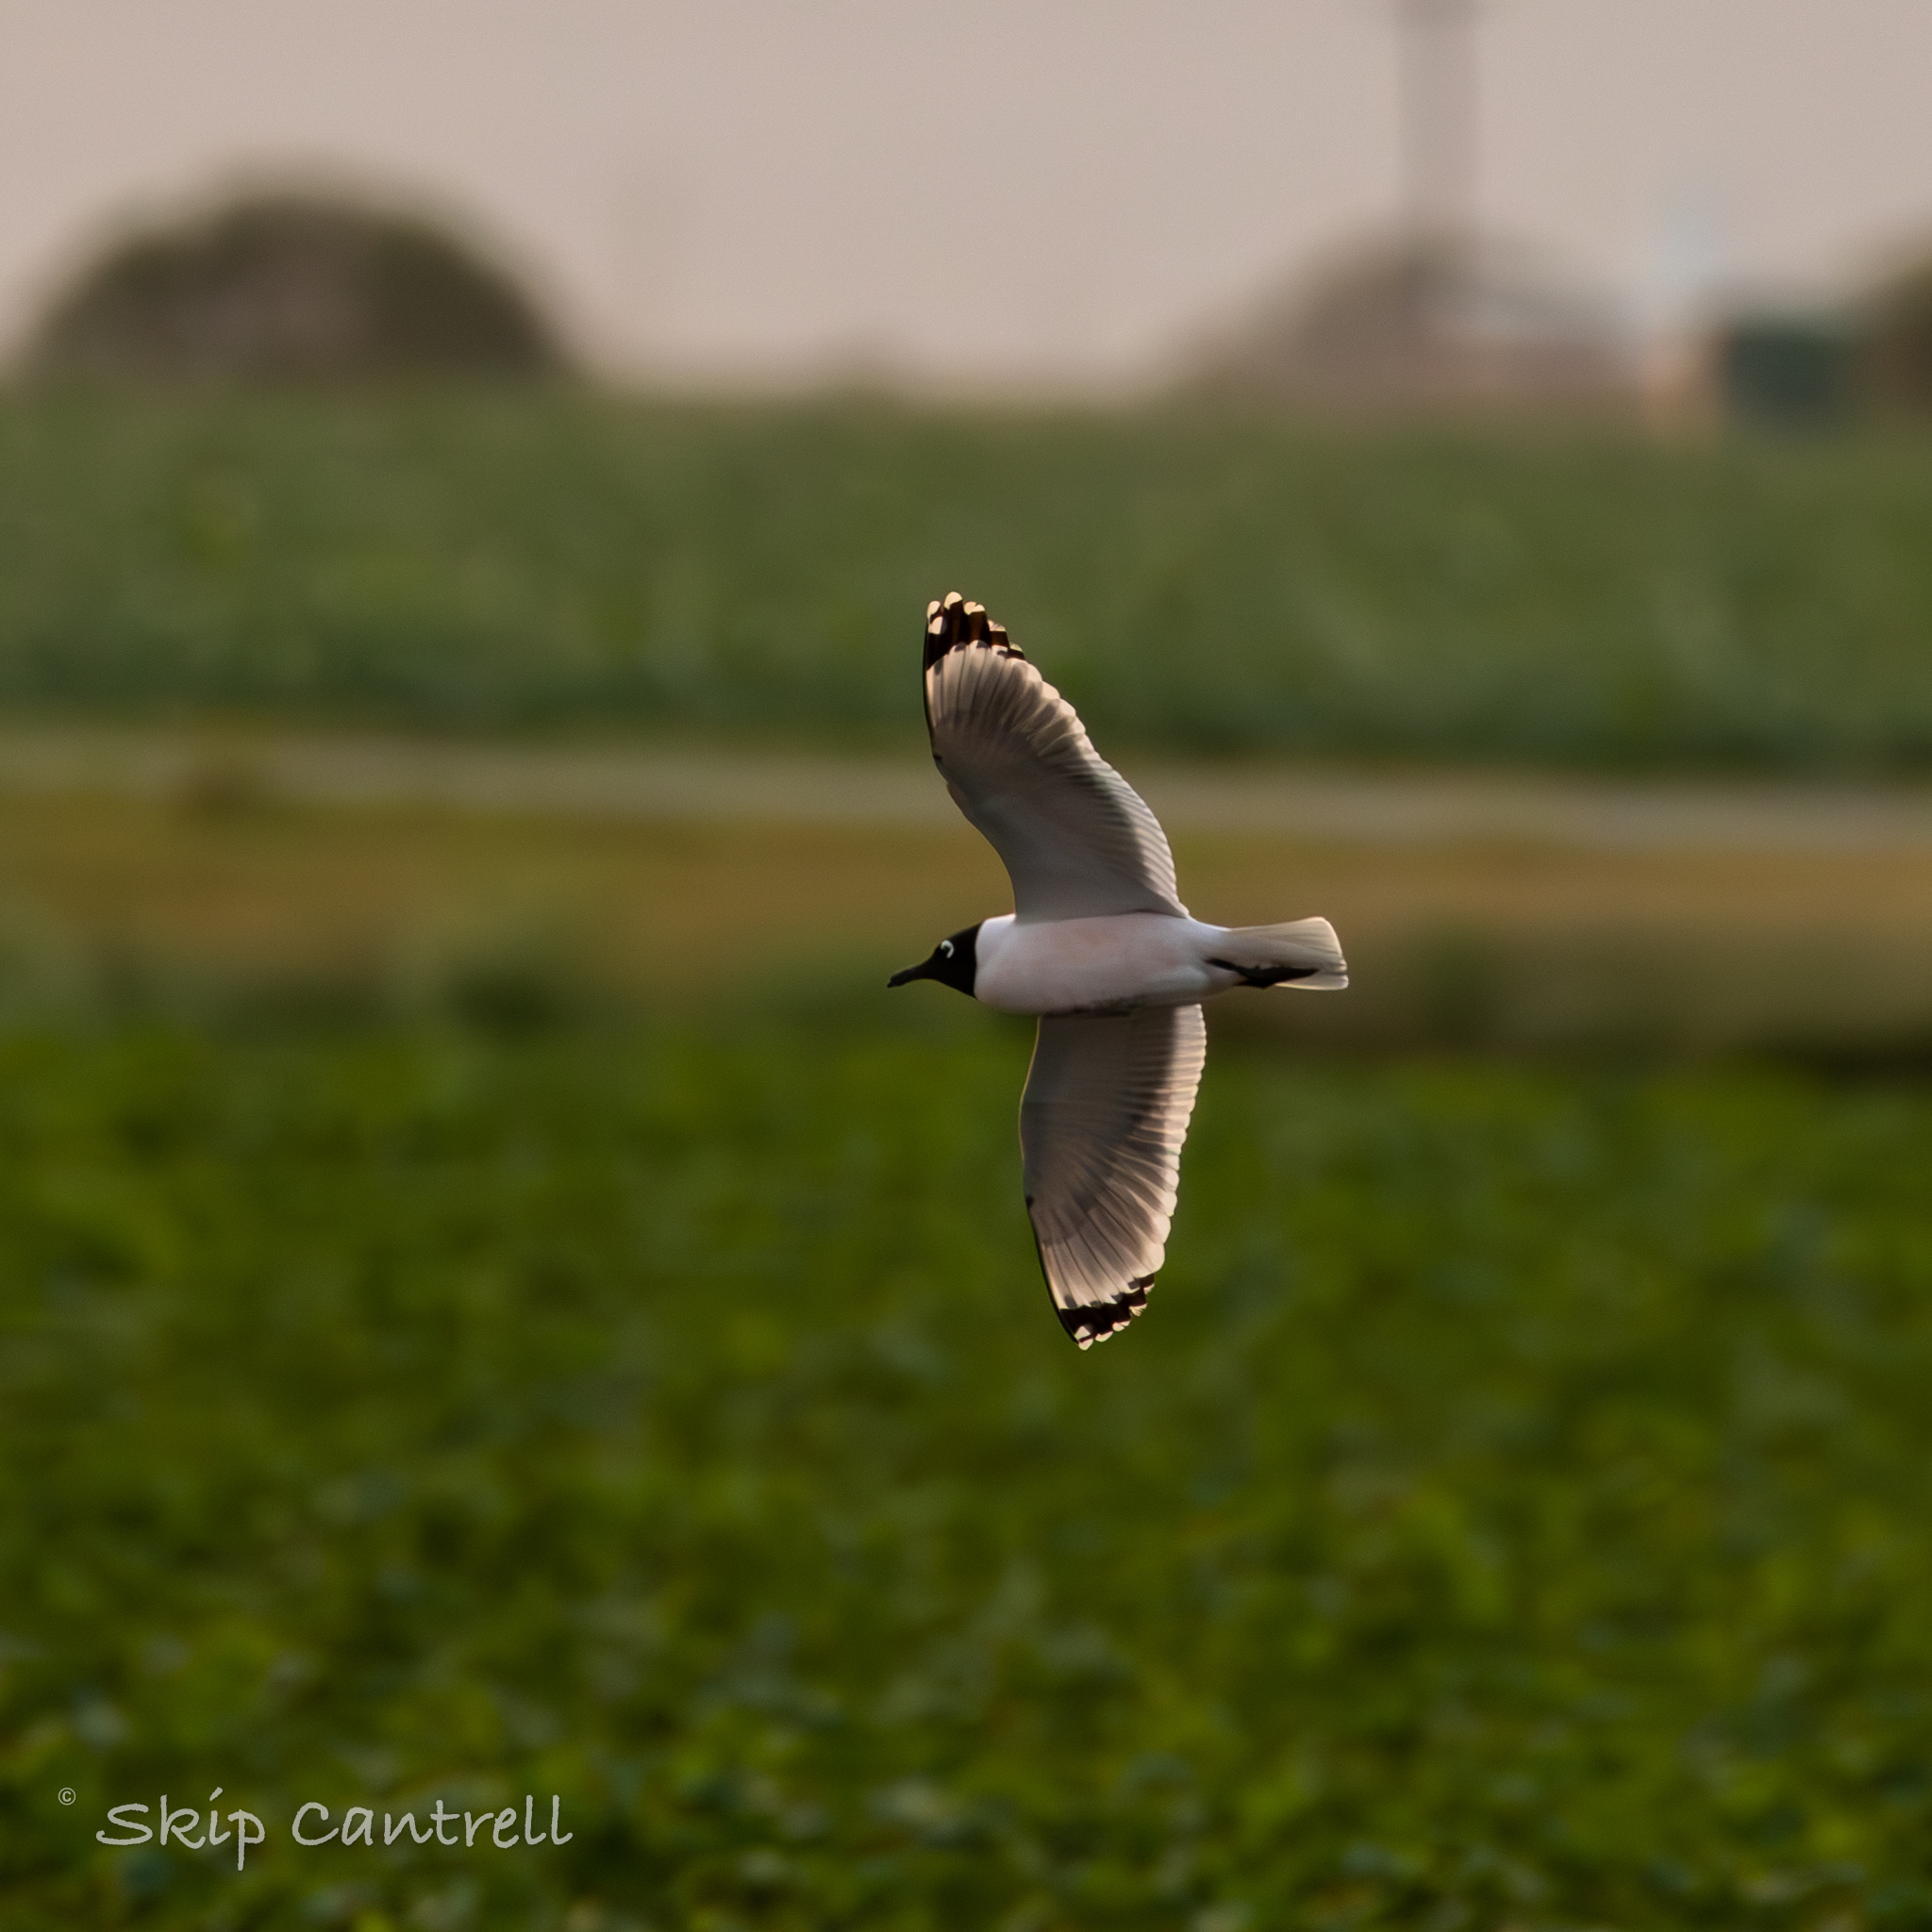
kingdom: Animalia
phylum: Chordata
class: Aves
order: Charadriiformes
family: Laridae
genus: Leucophaeus
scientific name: Leucophaeus pipixcan
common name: Franklin's gull
